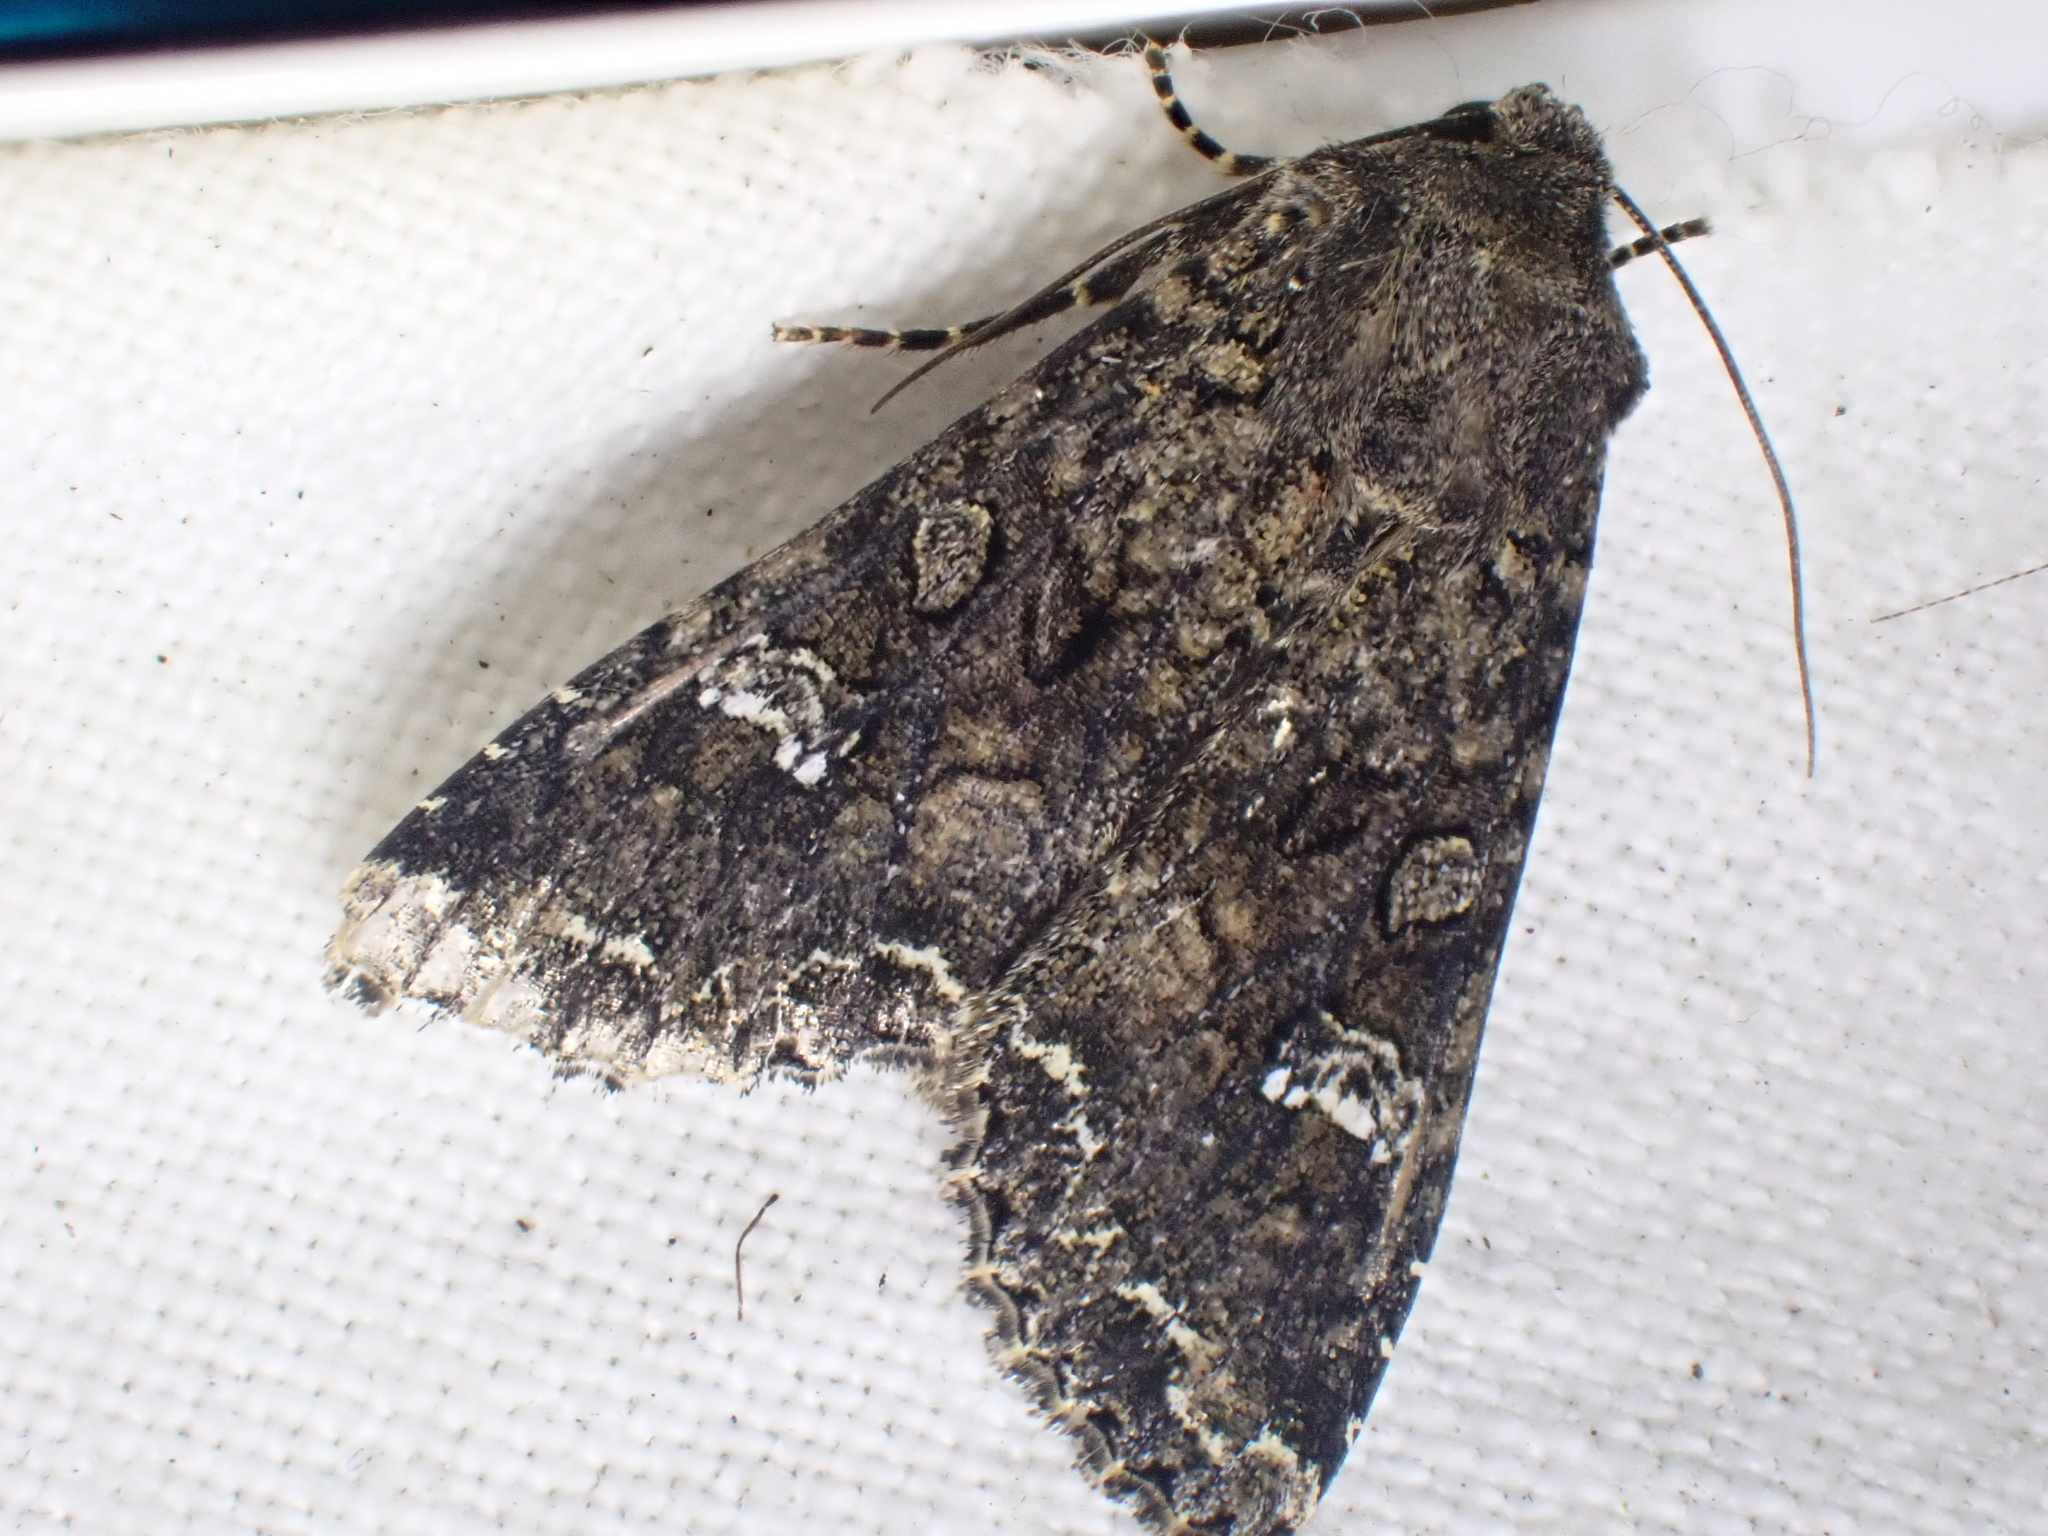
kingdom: Animalia
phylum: Arthropoda
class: Insecta
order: Lepidoptera
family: Noctuidae
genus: Mamestra
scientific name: Mamestra brassicae
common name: Cabbage moth
